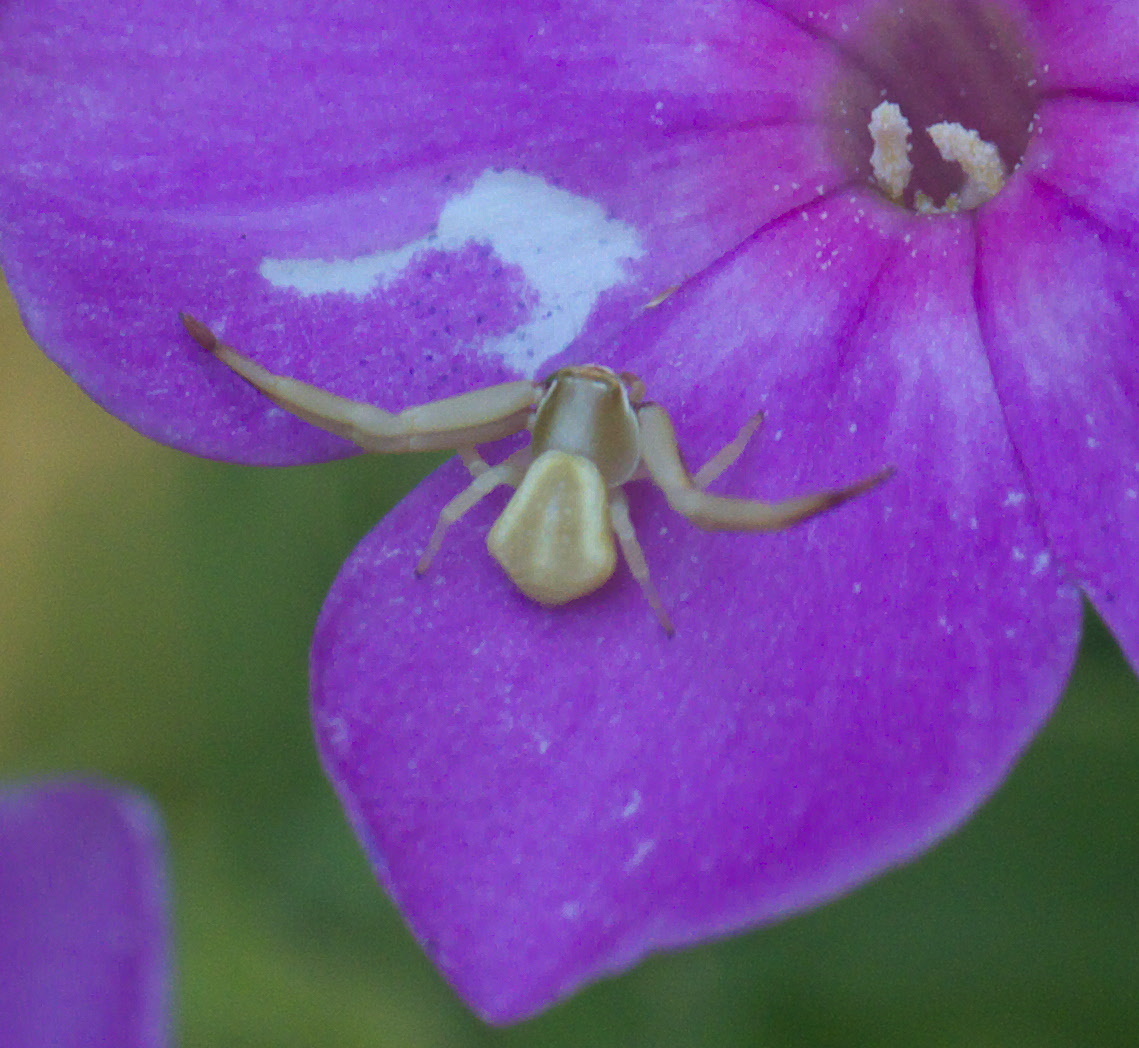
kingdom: Animalia
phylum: Arthropoda
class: Arachnida
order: Araneae
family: Thomisidae
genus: Misumenoides
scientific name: Misumenoides formosipes
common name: White-banded crab spider
